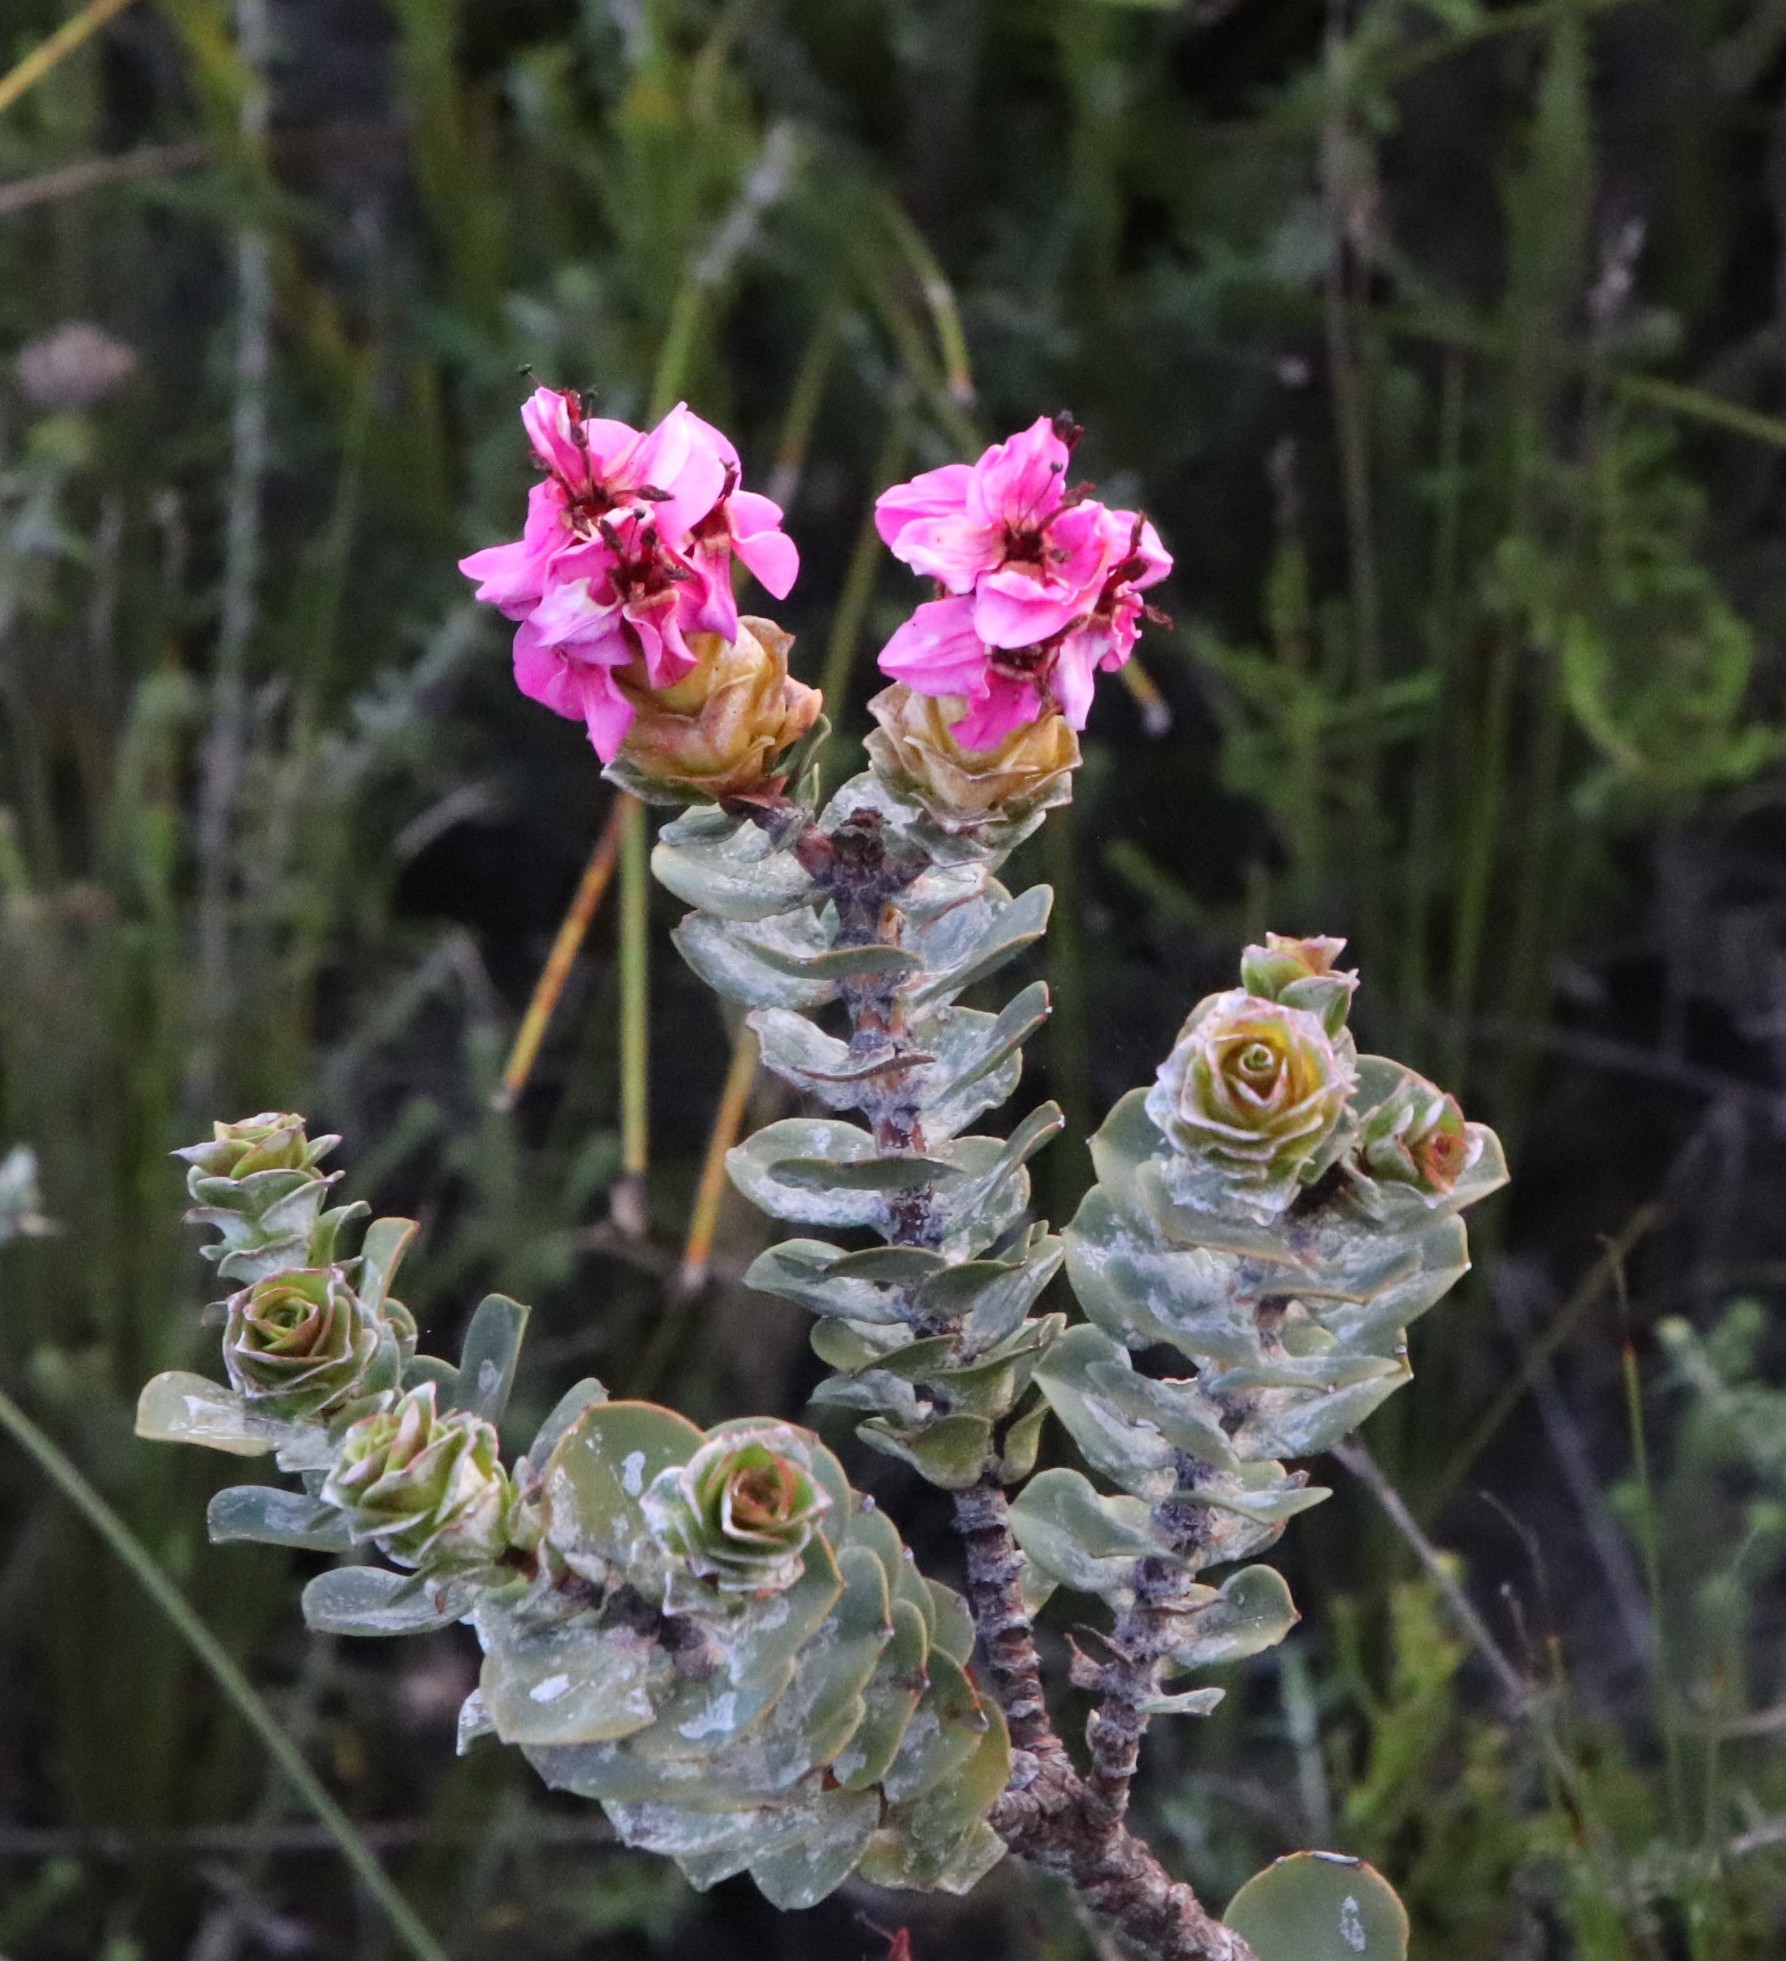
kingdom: Plantae
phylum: Tracheophyta
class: Magnoliopsida
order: Myrtales
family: Penaeaceae
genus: Saltera
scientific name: Saltera sarcocolla
